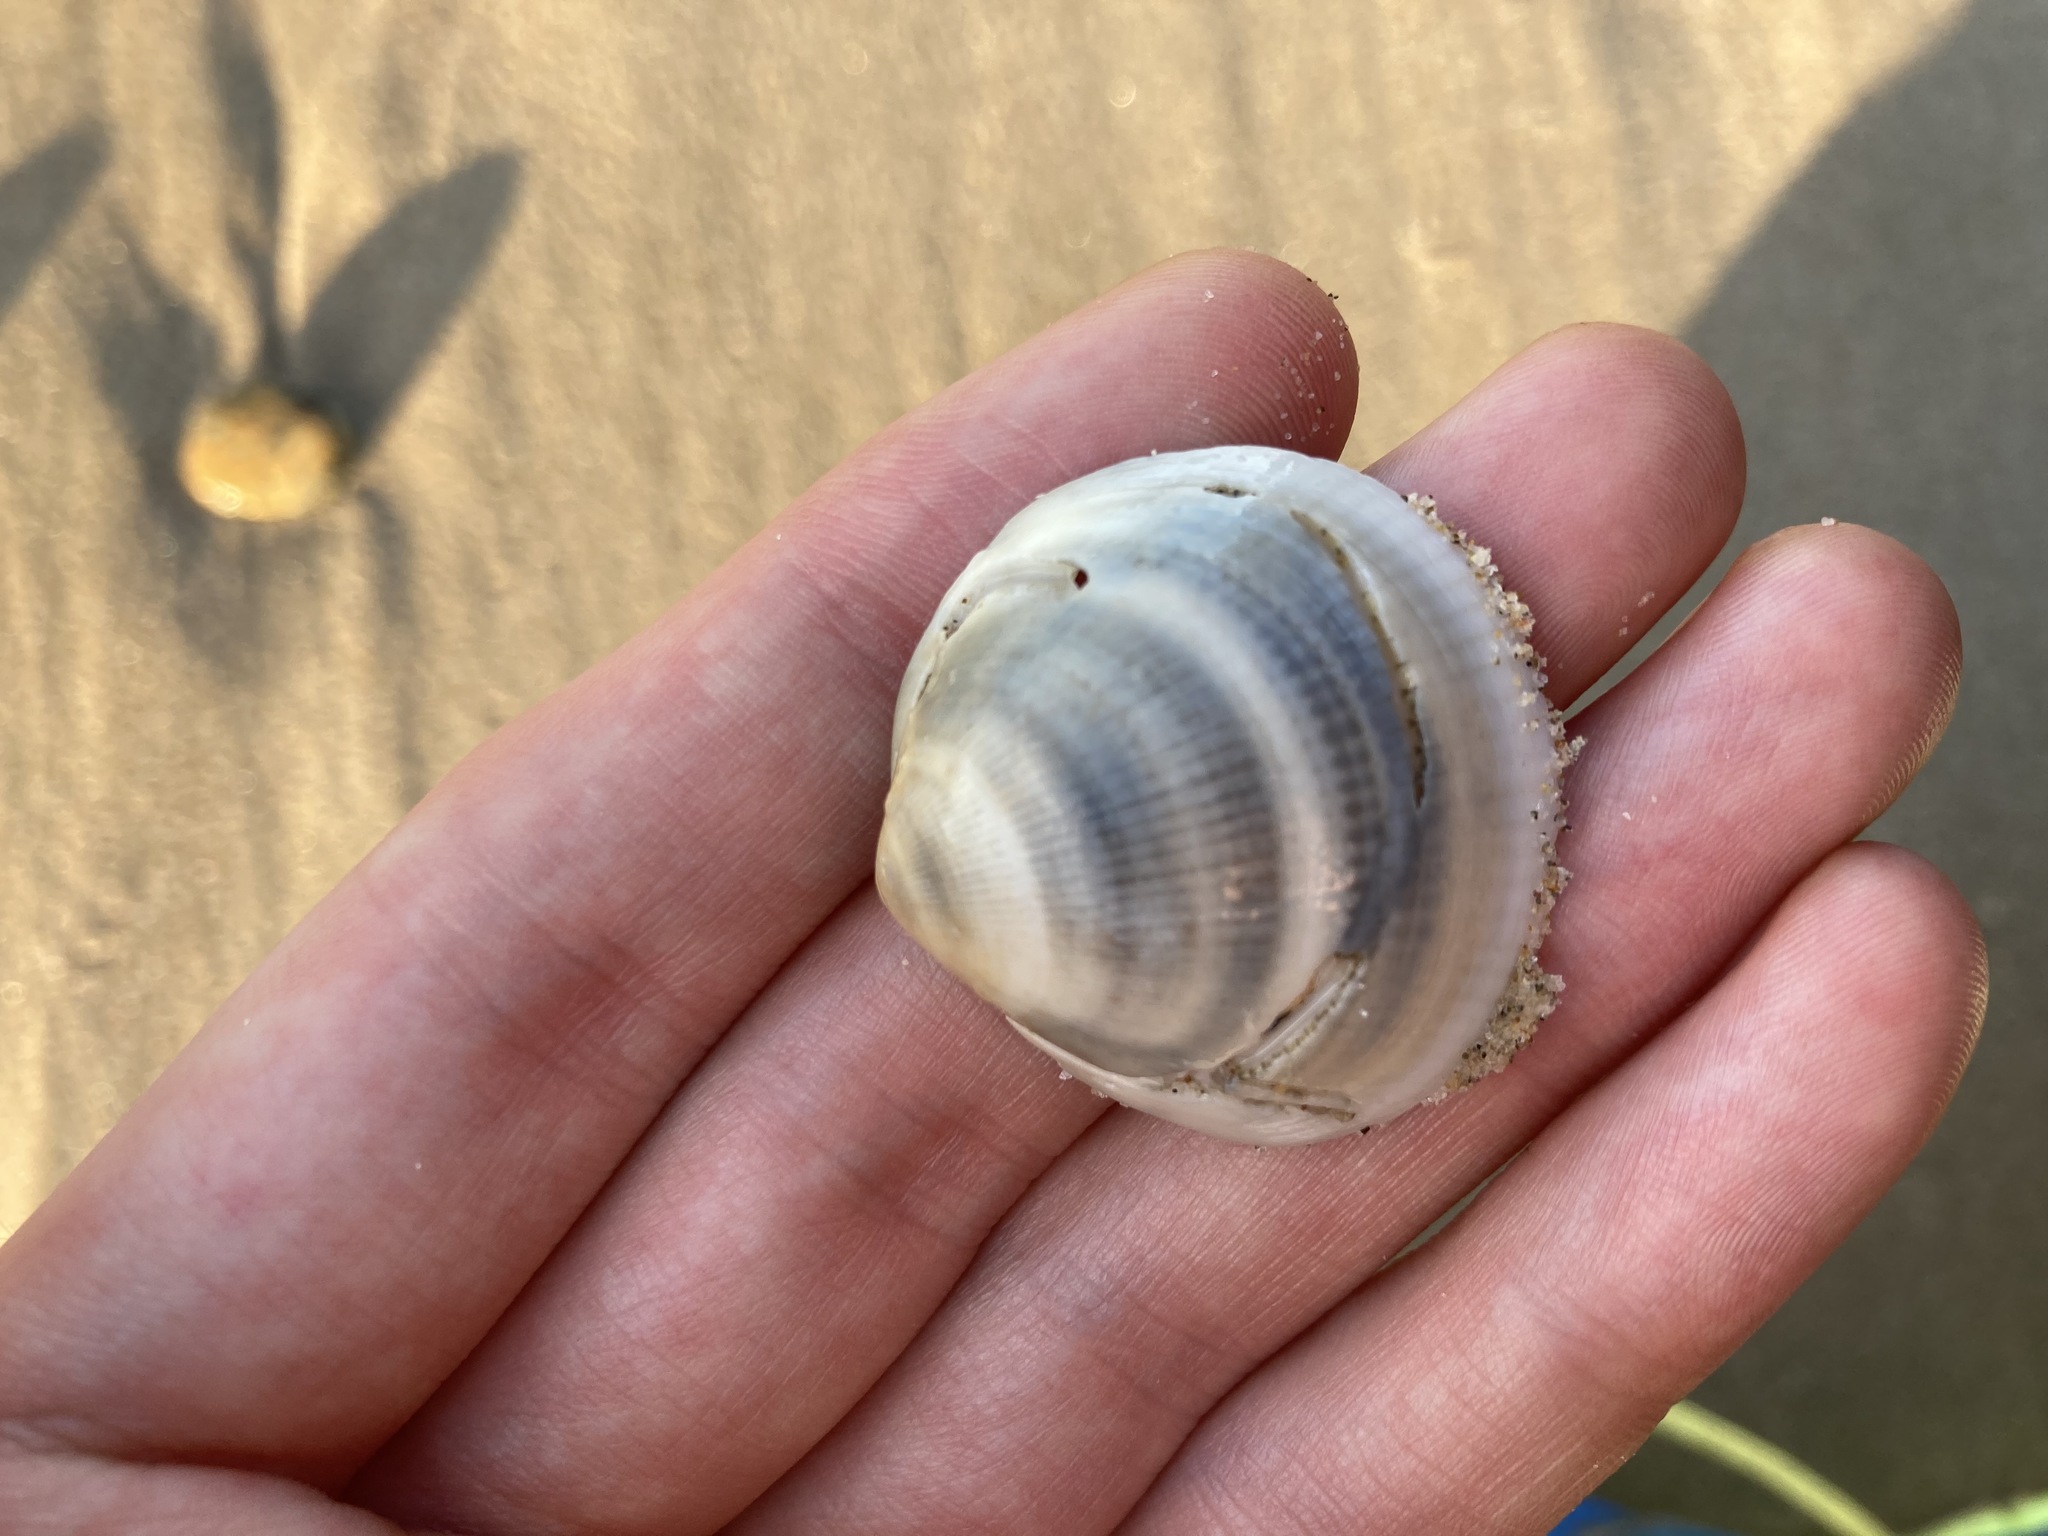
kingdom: Animalia
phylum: Mollusca
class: Bivalvia
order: Arcida
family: Glycymerididae
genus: Glycymeris
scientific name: Glycymeris grayana
